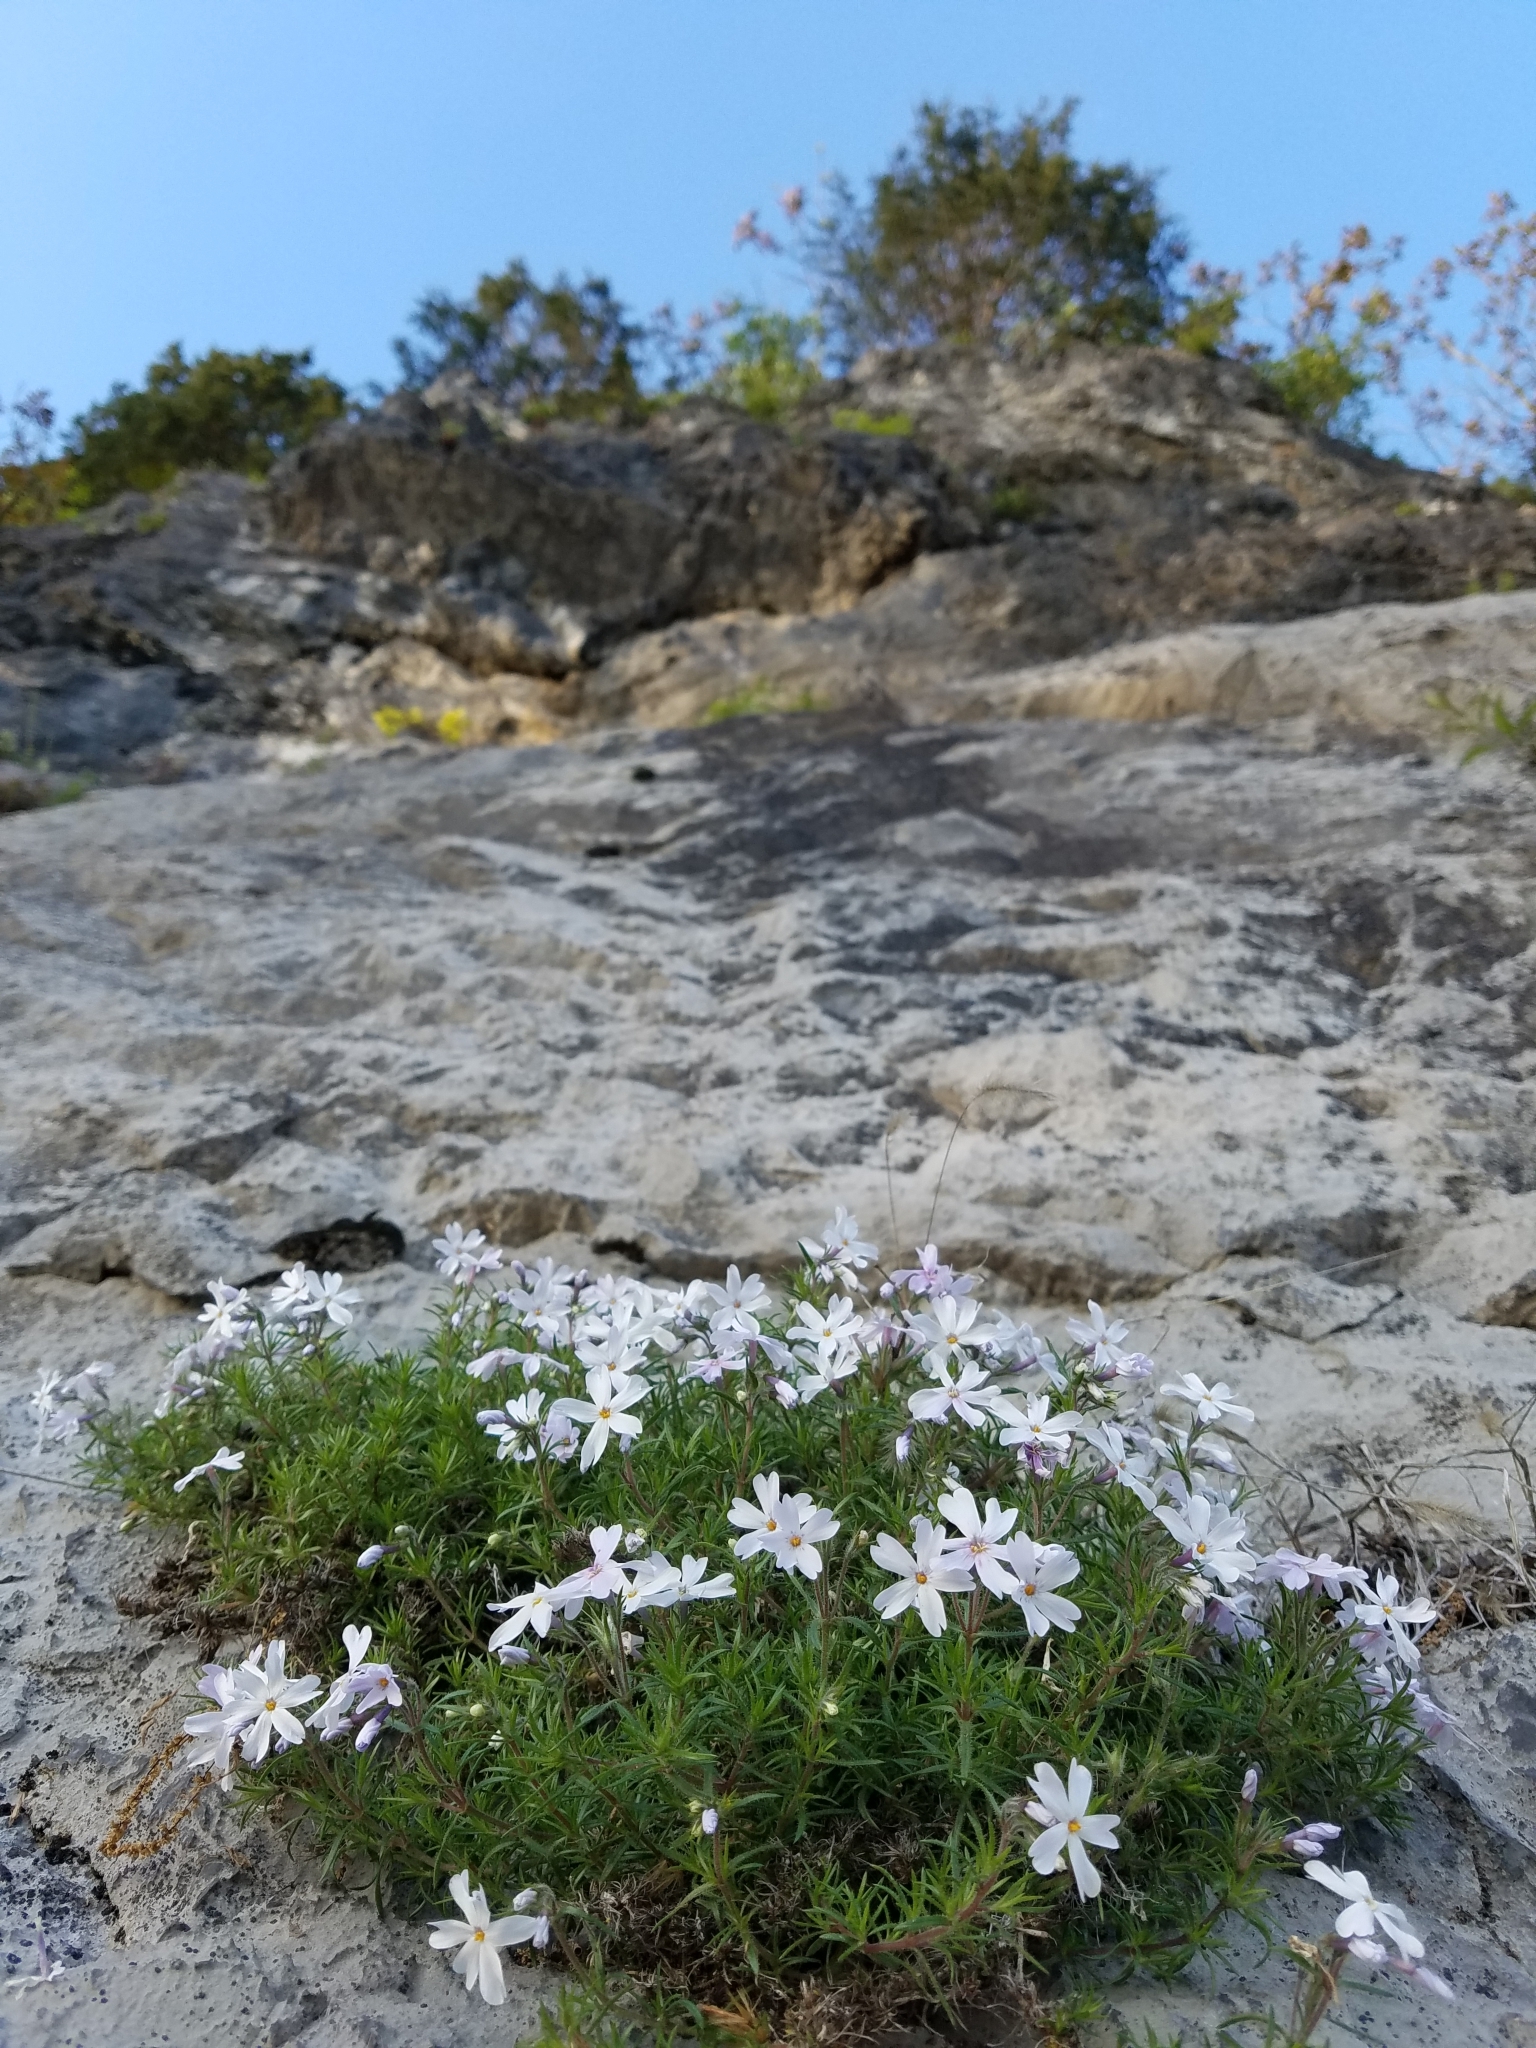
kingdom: Plantae
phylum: Tracheophyta
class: Magnoliopsida
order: Ericales
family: Polemoniaceae
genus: Phlox
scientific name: Phlox subulata
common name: Moss phlox
